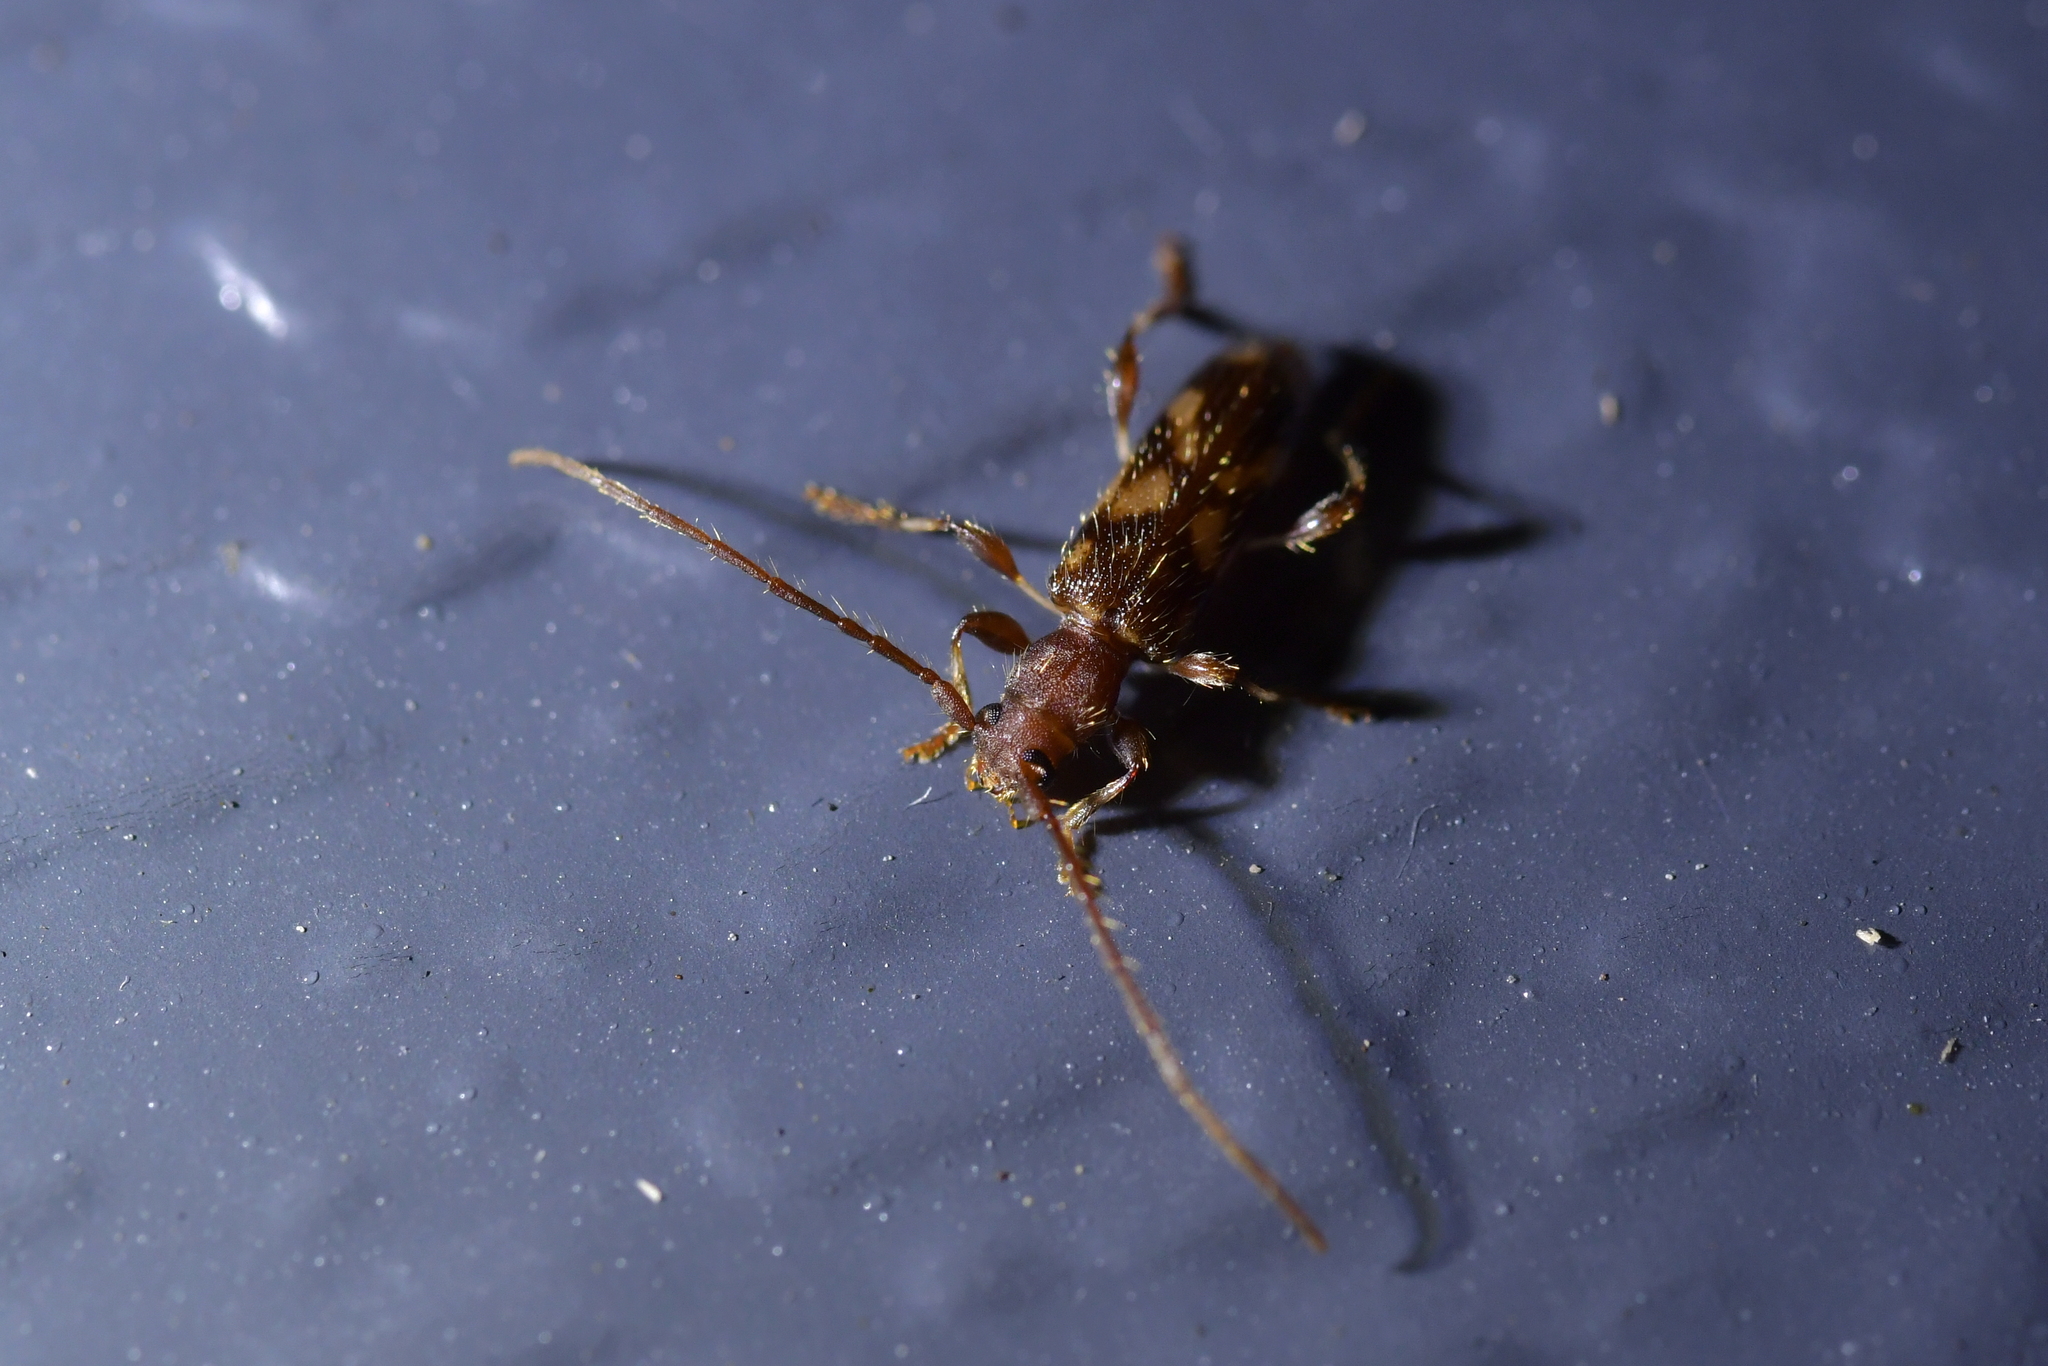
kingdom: Animalia
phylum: Arthropoda
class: Insecta
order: Coleoptera
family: Cerambycidae
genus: Bethelium
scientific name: Bethelium signiferum
